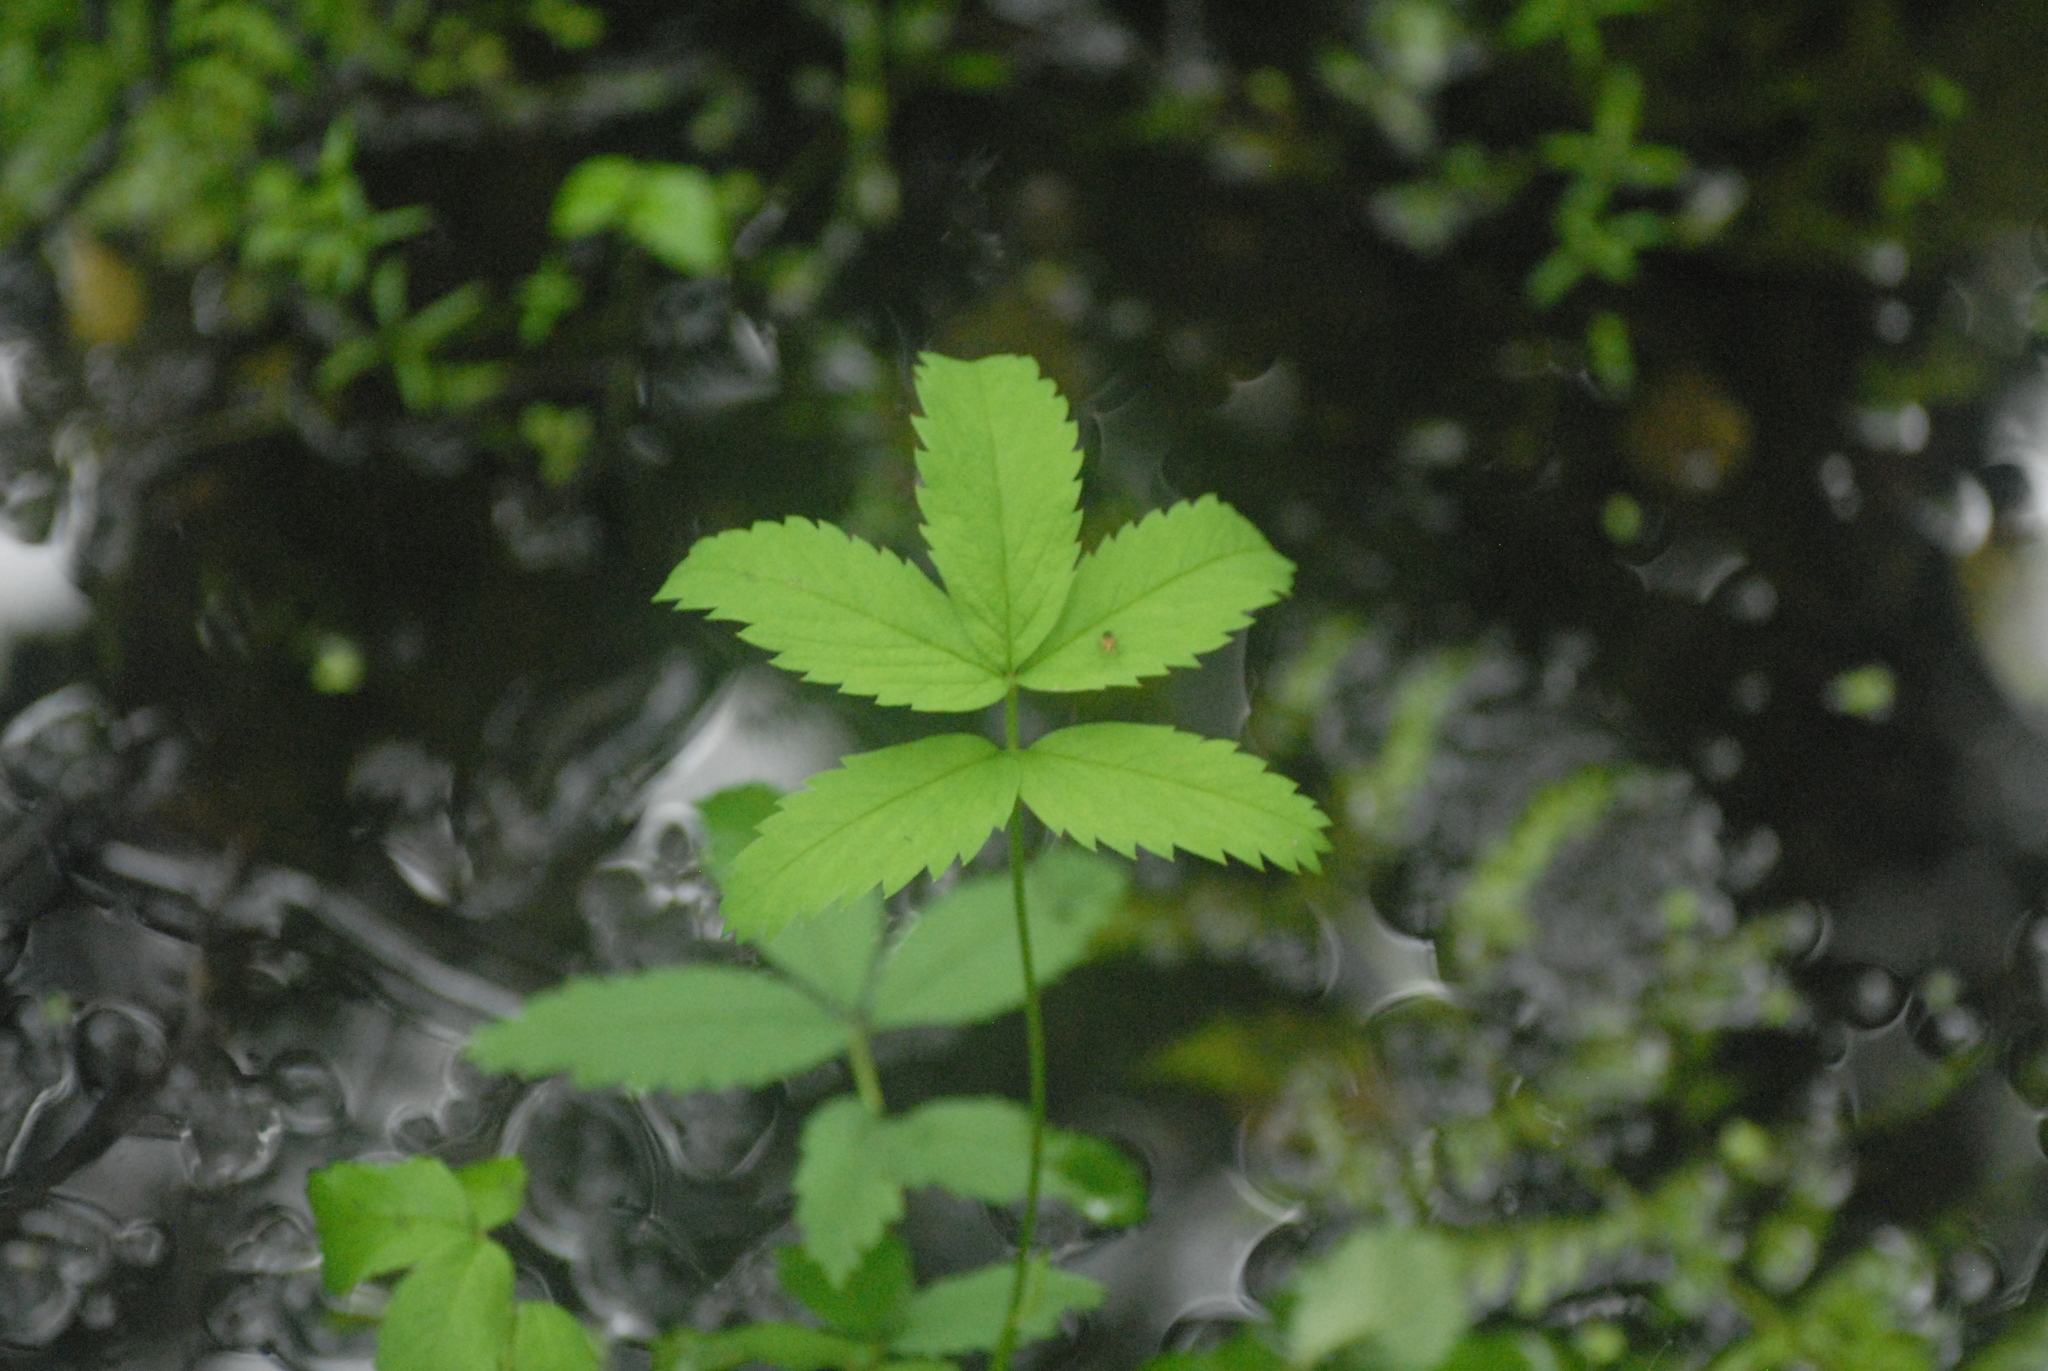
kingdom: Plantae
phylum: Tracheophyta
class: Magnoliopsida
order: Rosales
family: Rosaceae
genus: Comarum
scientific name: Comarum palustre
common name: Marsh cinquefoil
